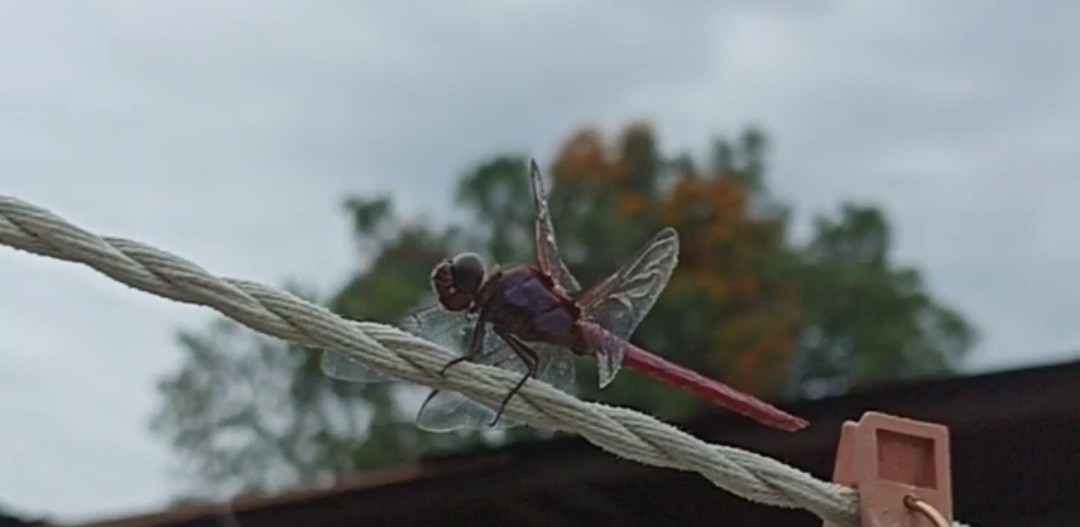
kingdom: Animalia
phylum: Arthropoda
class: Insecta
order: Odonata
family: Libellulidae
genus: Orthemis
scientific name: Orthemis ferruginea
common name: Roseate skimmer
